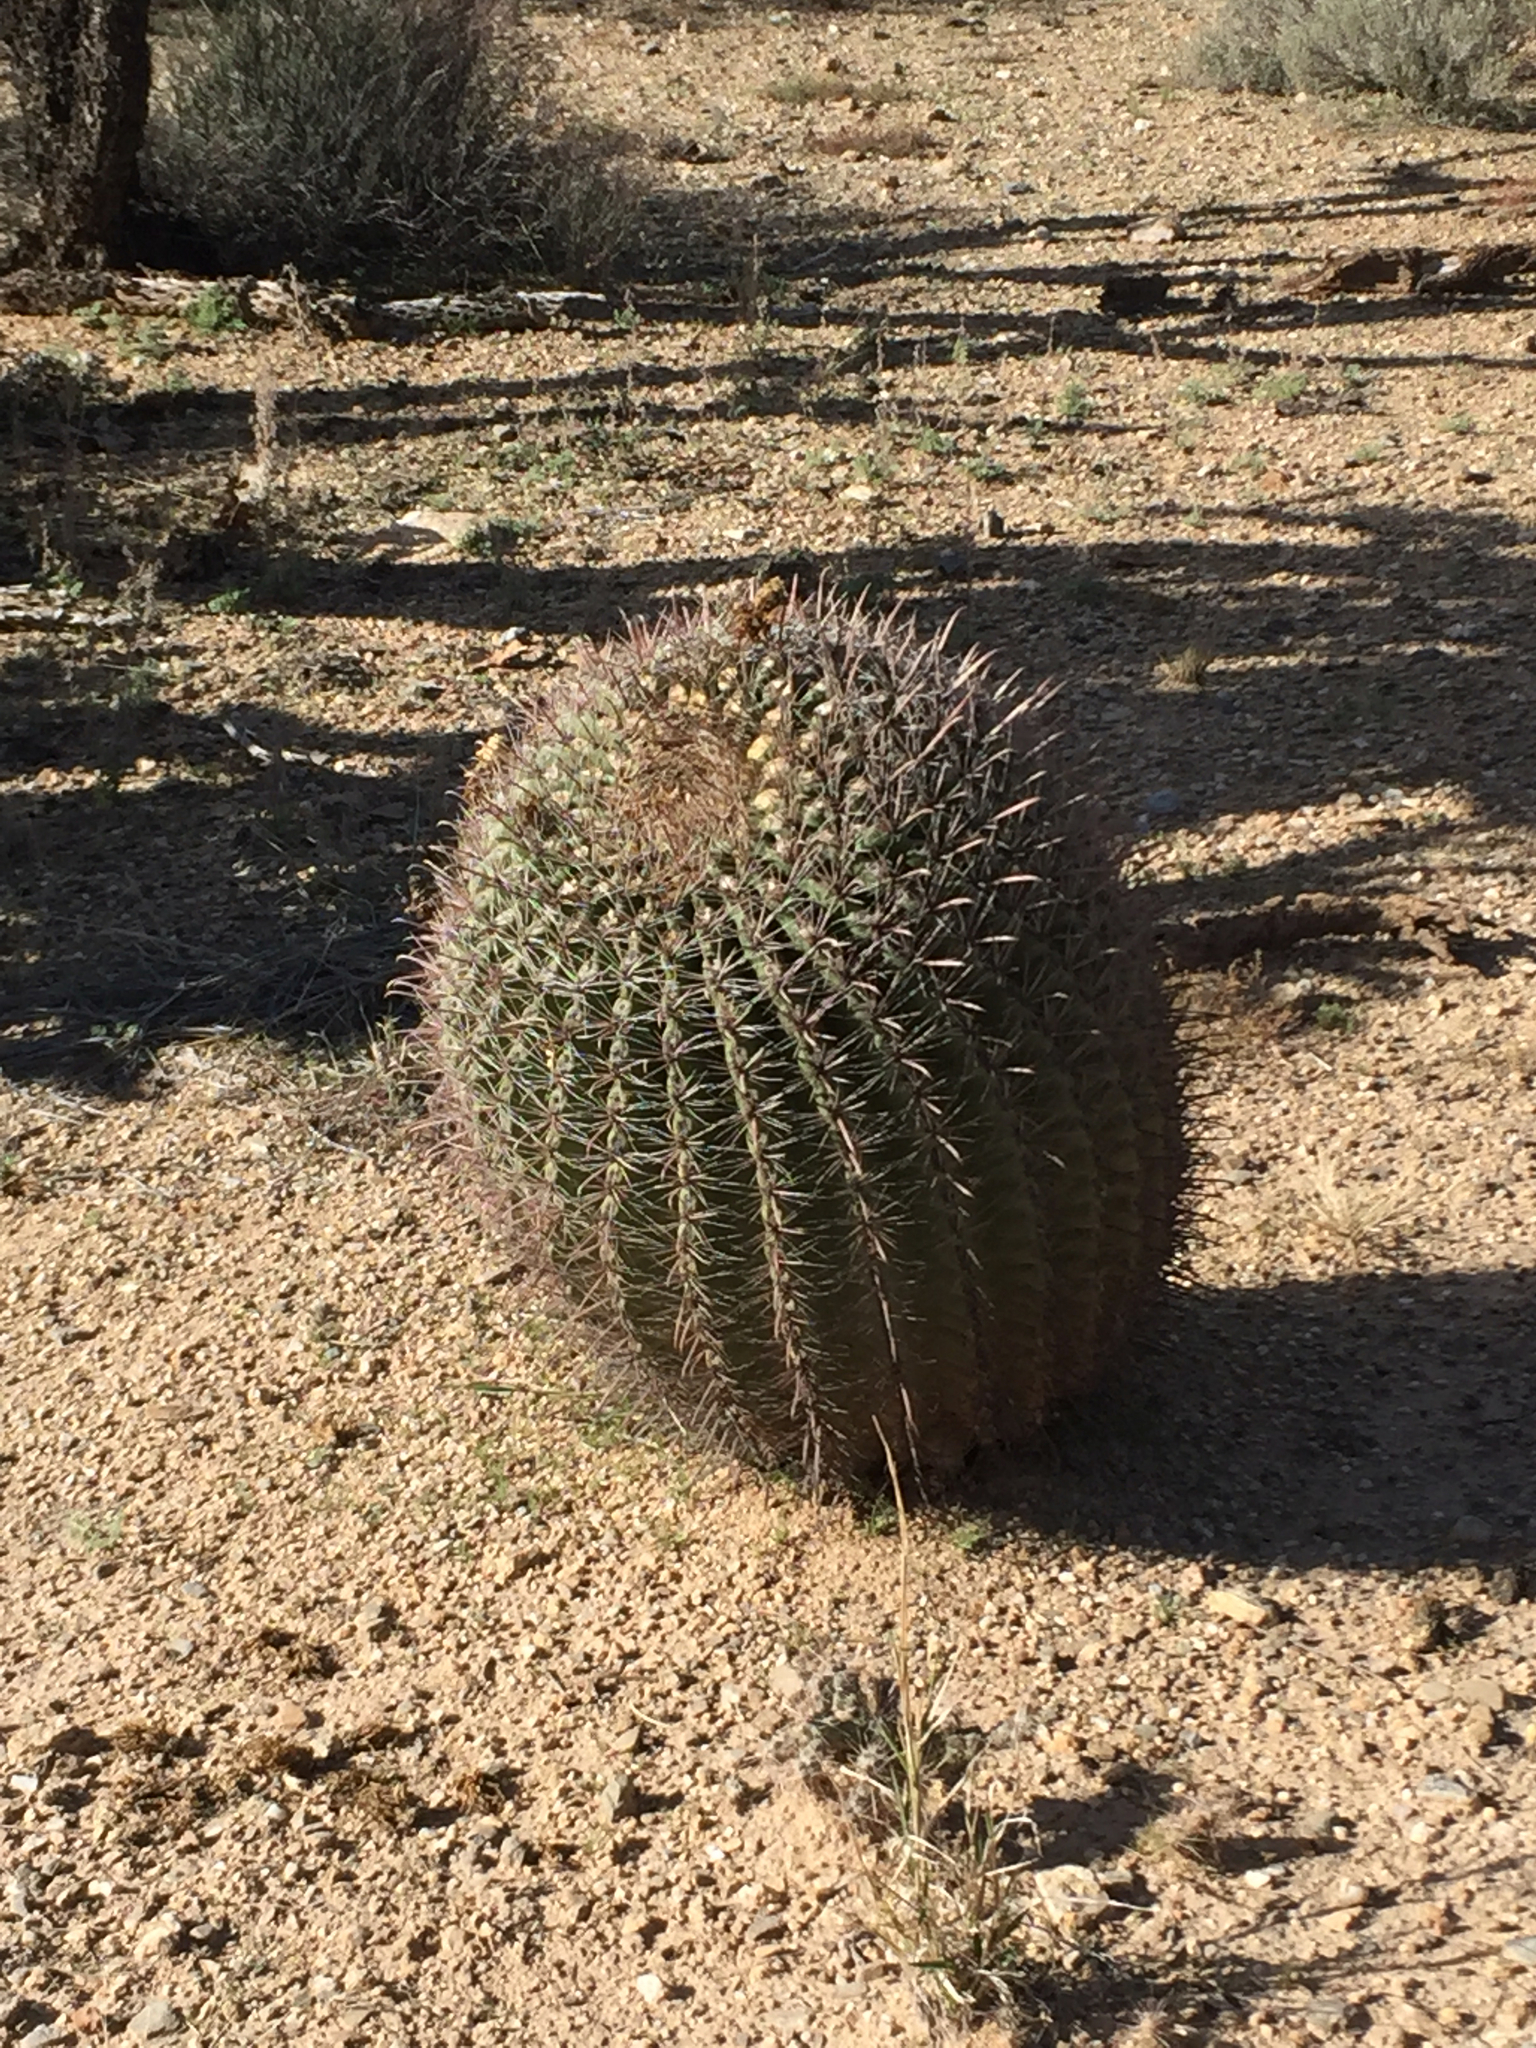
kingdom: Plantae
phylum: Tracheophyta
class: Magnoliopsida
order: Caryophyllales
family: Cactaceae
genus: Ferocactus
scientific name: Ferocactus wislizeni
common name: Candy barrel cactus
